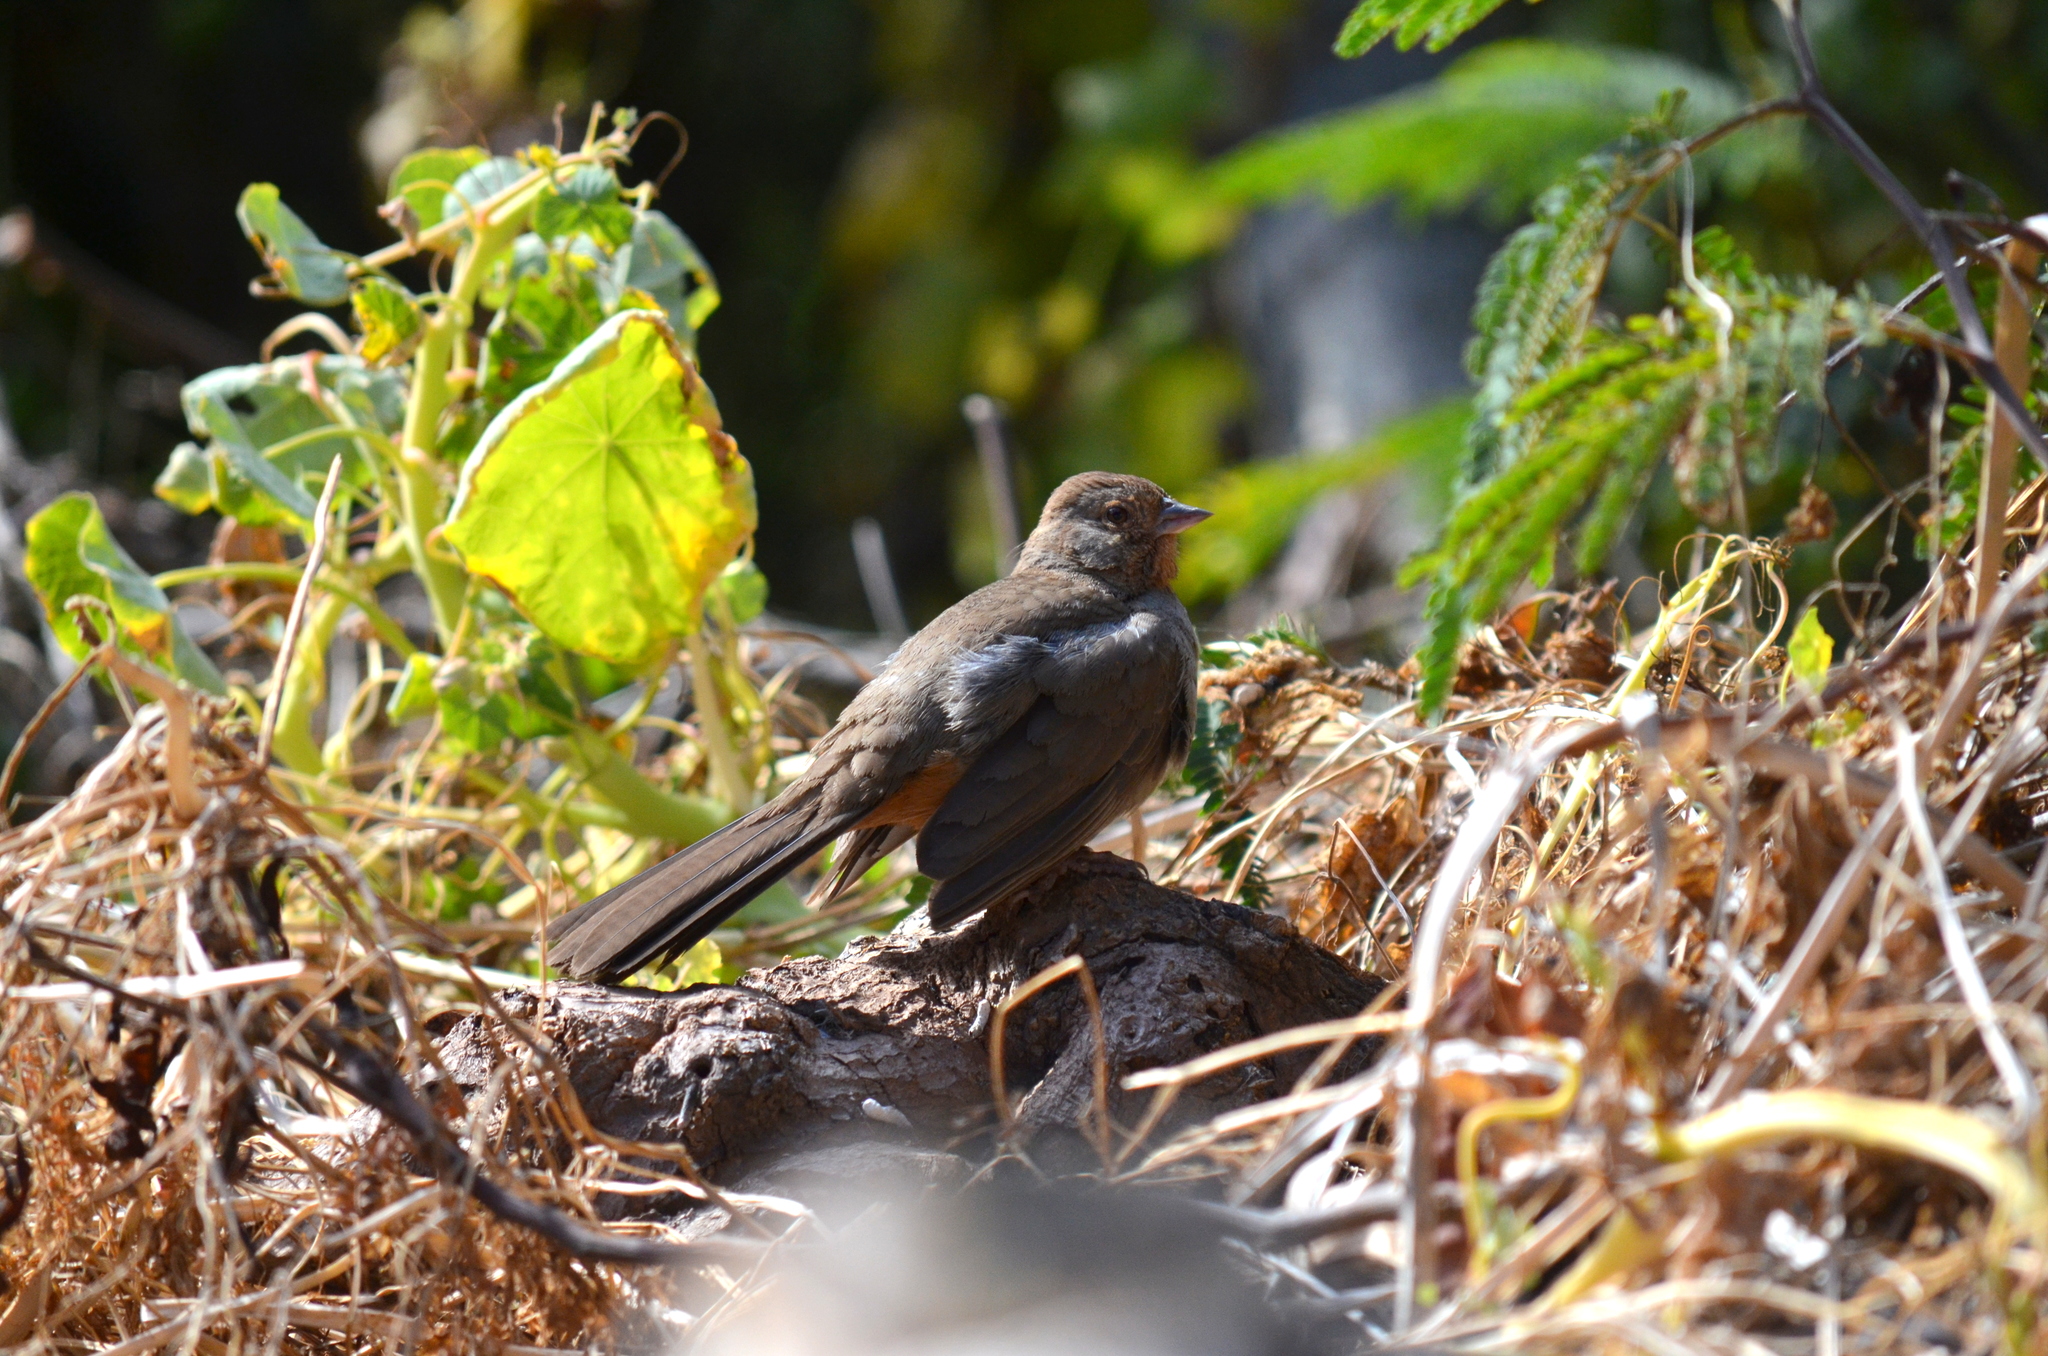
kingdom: Animalia
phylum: Chordata
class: Aves
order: Passeriformes
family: Passerellidae
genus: Melozone
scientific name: Melozone crissalis
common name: California towhee
